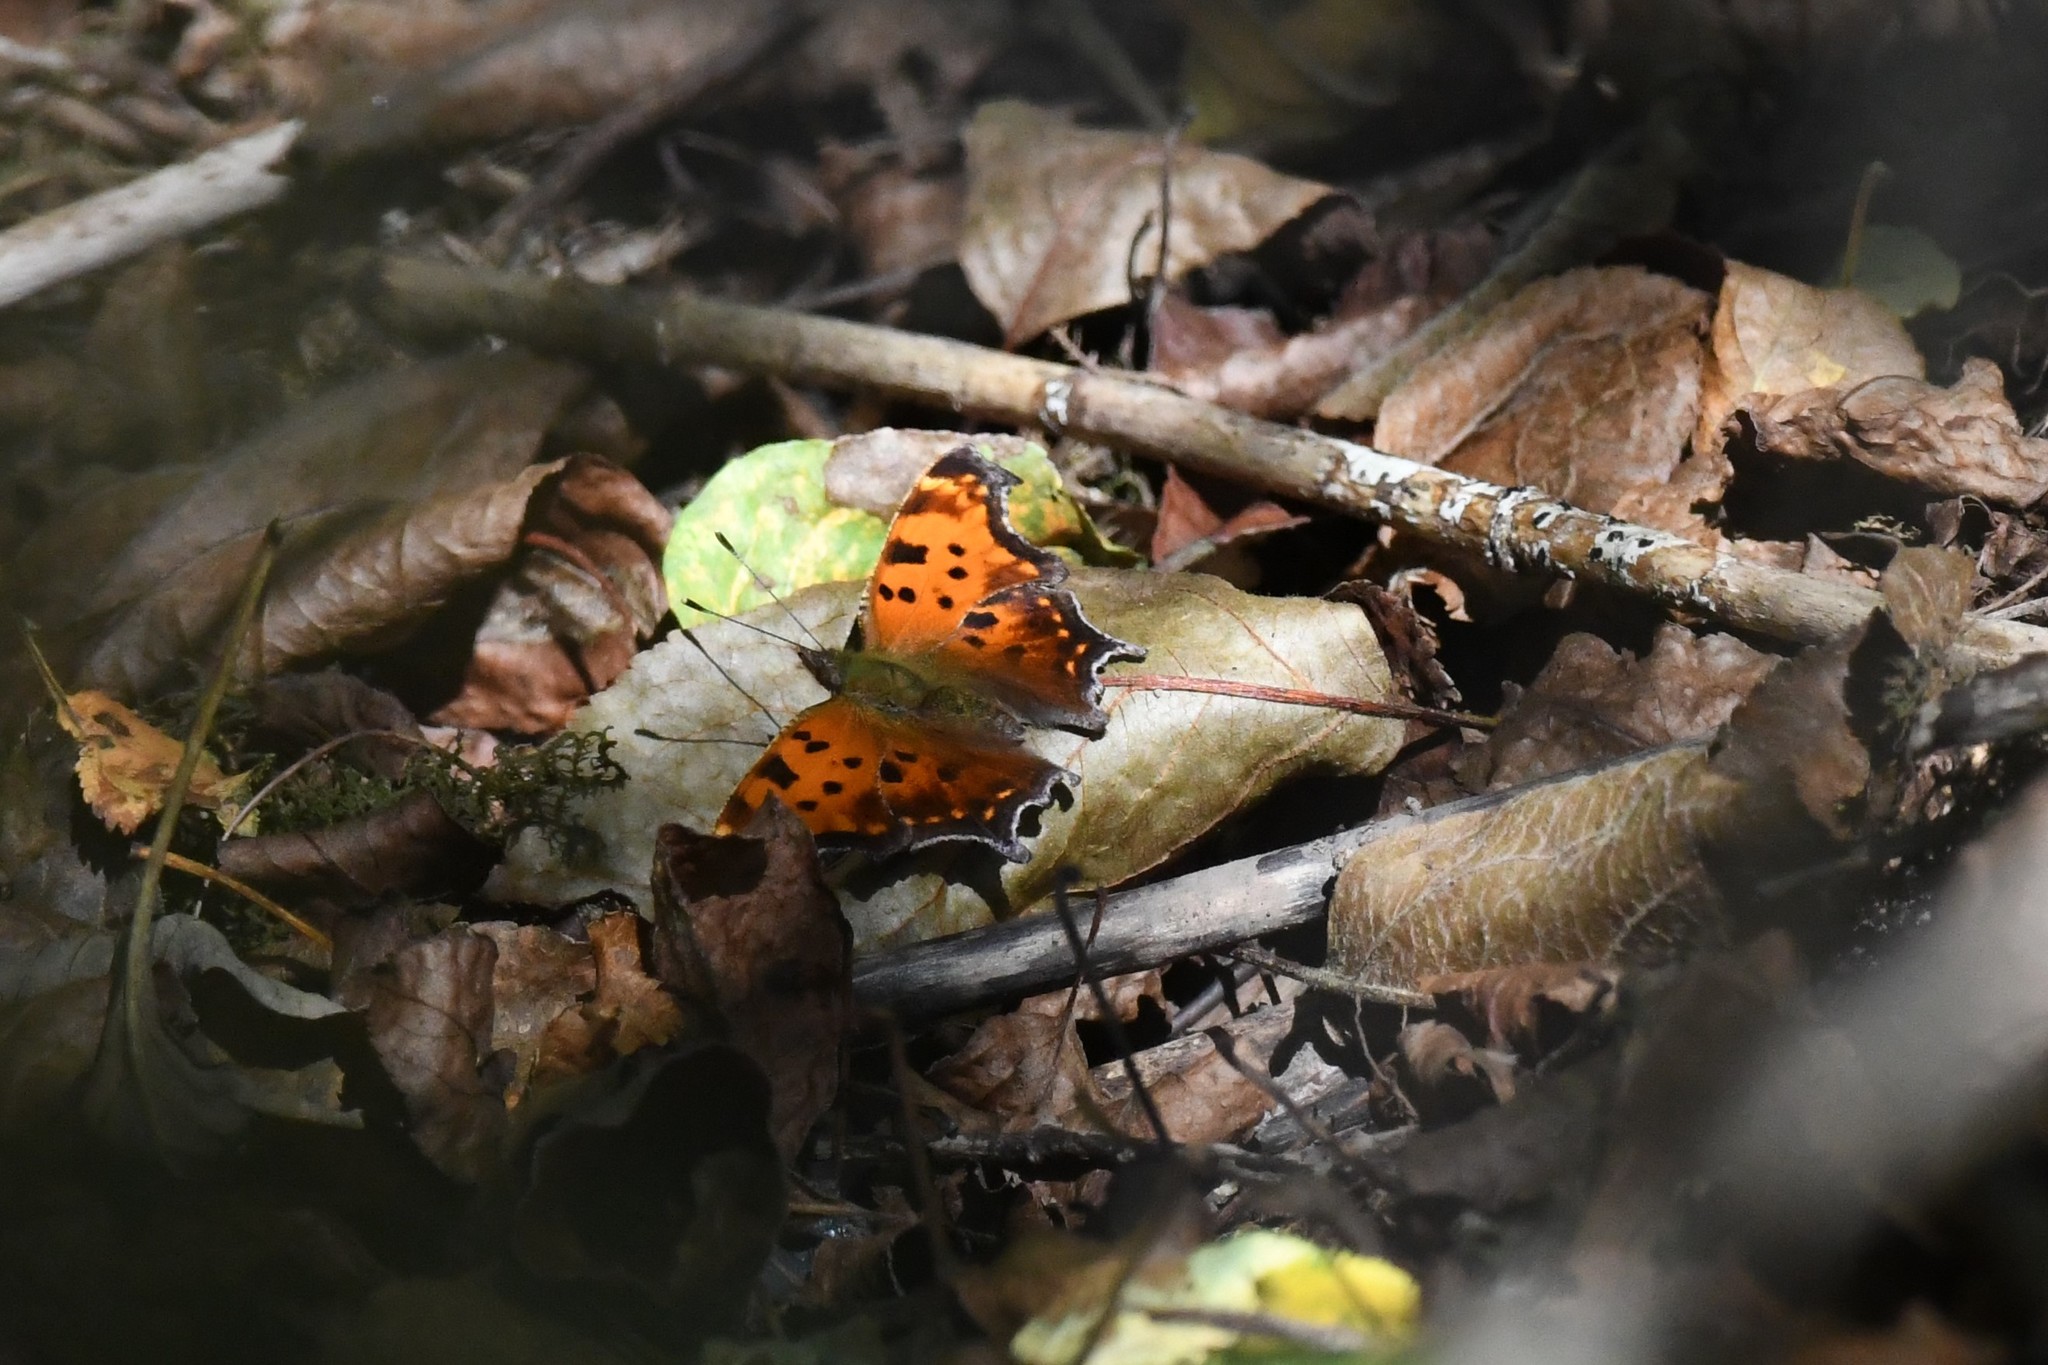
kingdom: Animalia
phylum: Arthropoda
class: Insecta
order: Lepidoptera
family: Nymphalidae
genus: Polygonia
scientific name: Polygonia comma
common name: Eastern comma
